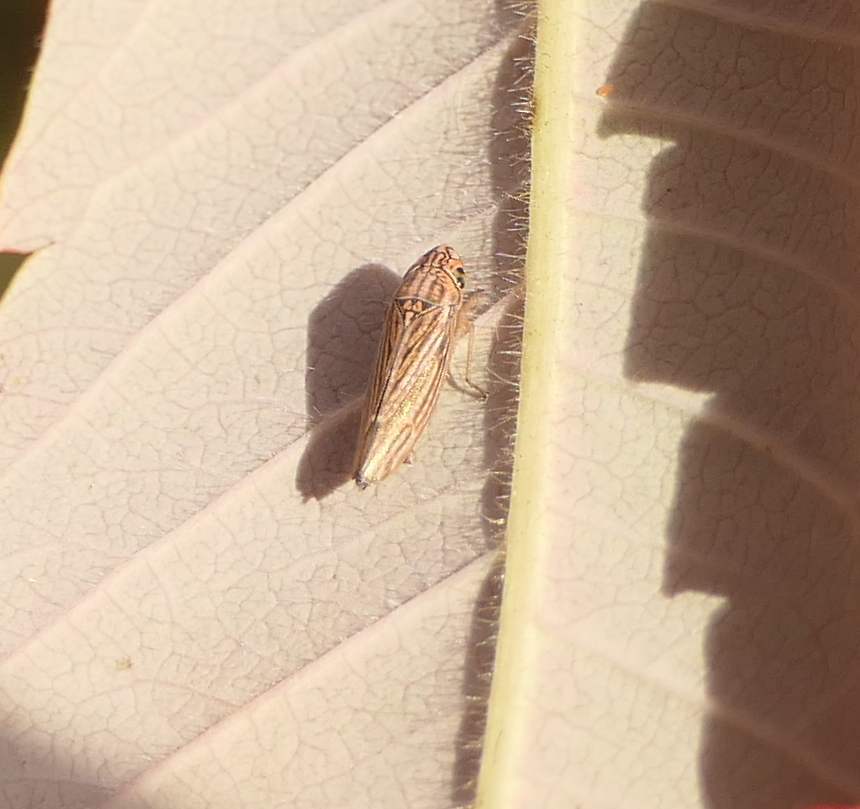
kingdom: Animalia
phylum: Arthropoda
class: Insecta
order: Hemiptera
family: Cicadellidae
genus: Neokolla
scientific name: Neokolla hieroglyphica
